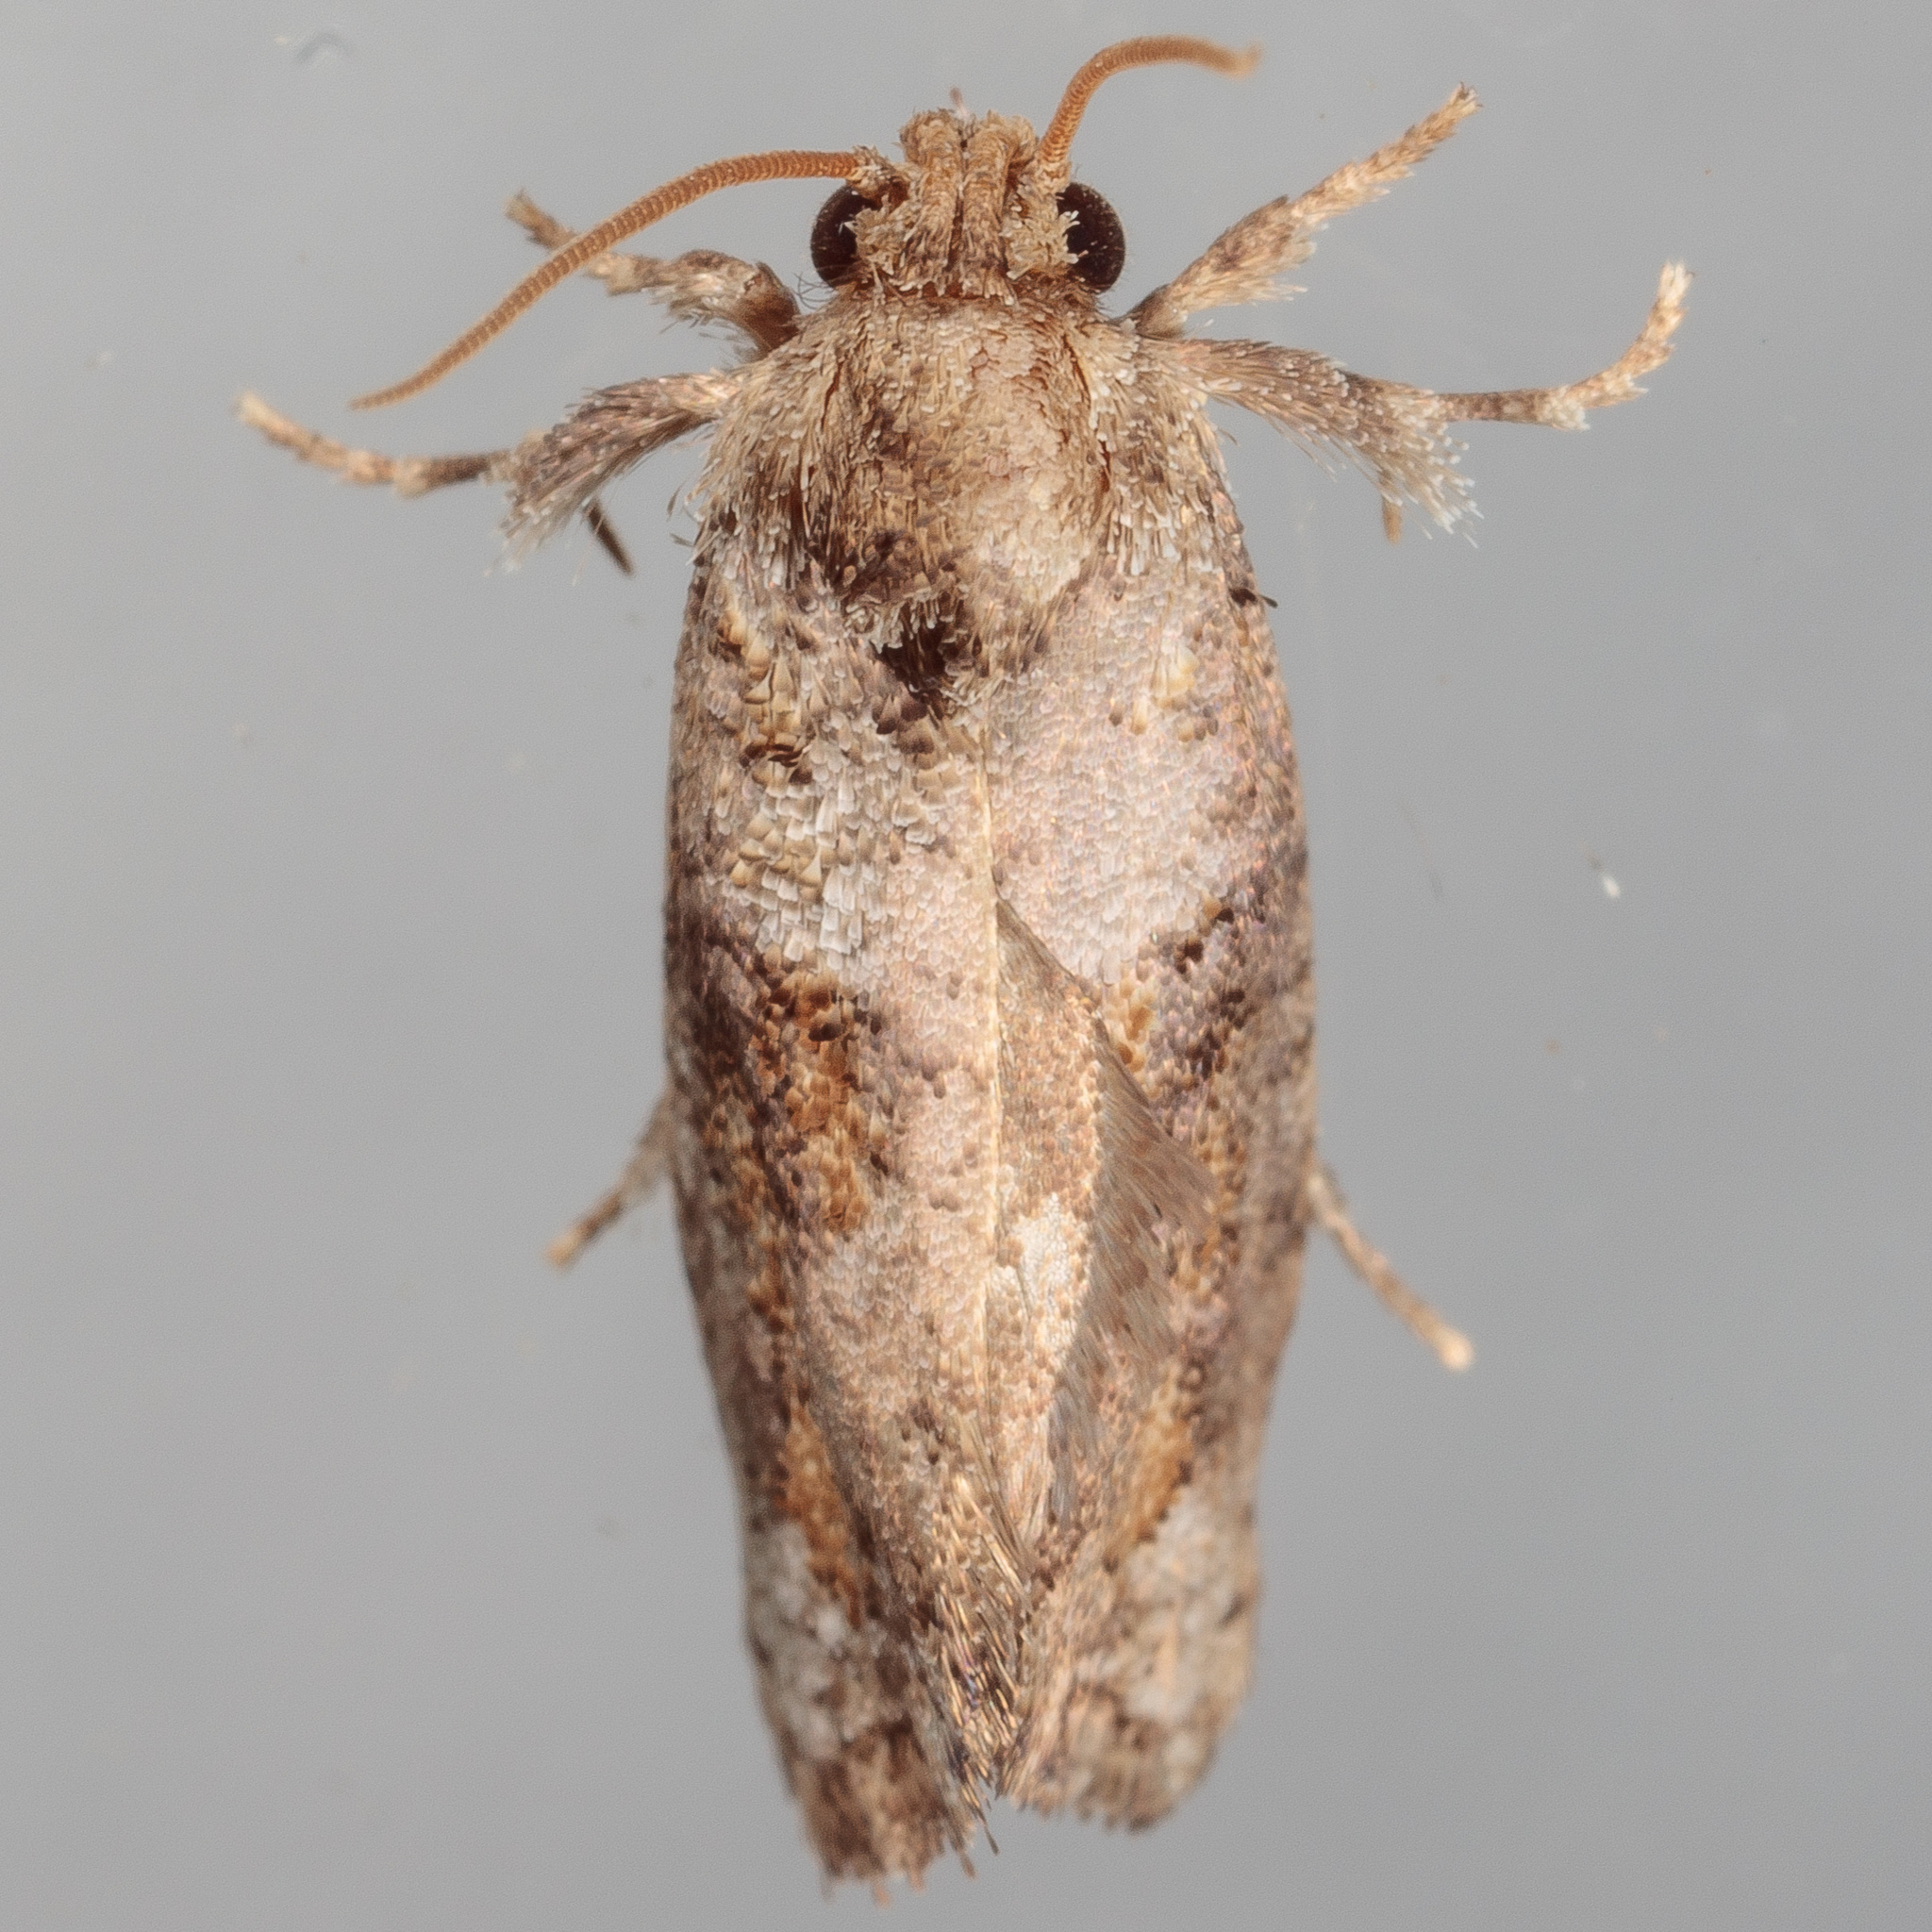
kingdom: Animalia
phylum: Arthropoda
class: Insecta
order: Lepidoptera
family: Tineidae
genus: Acrolophus
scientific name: Acrolophus piger
